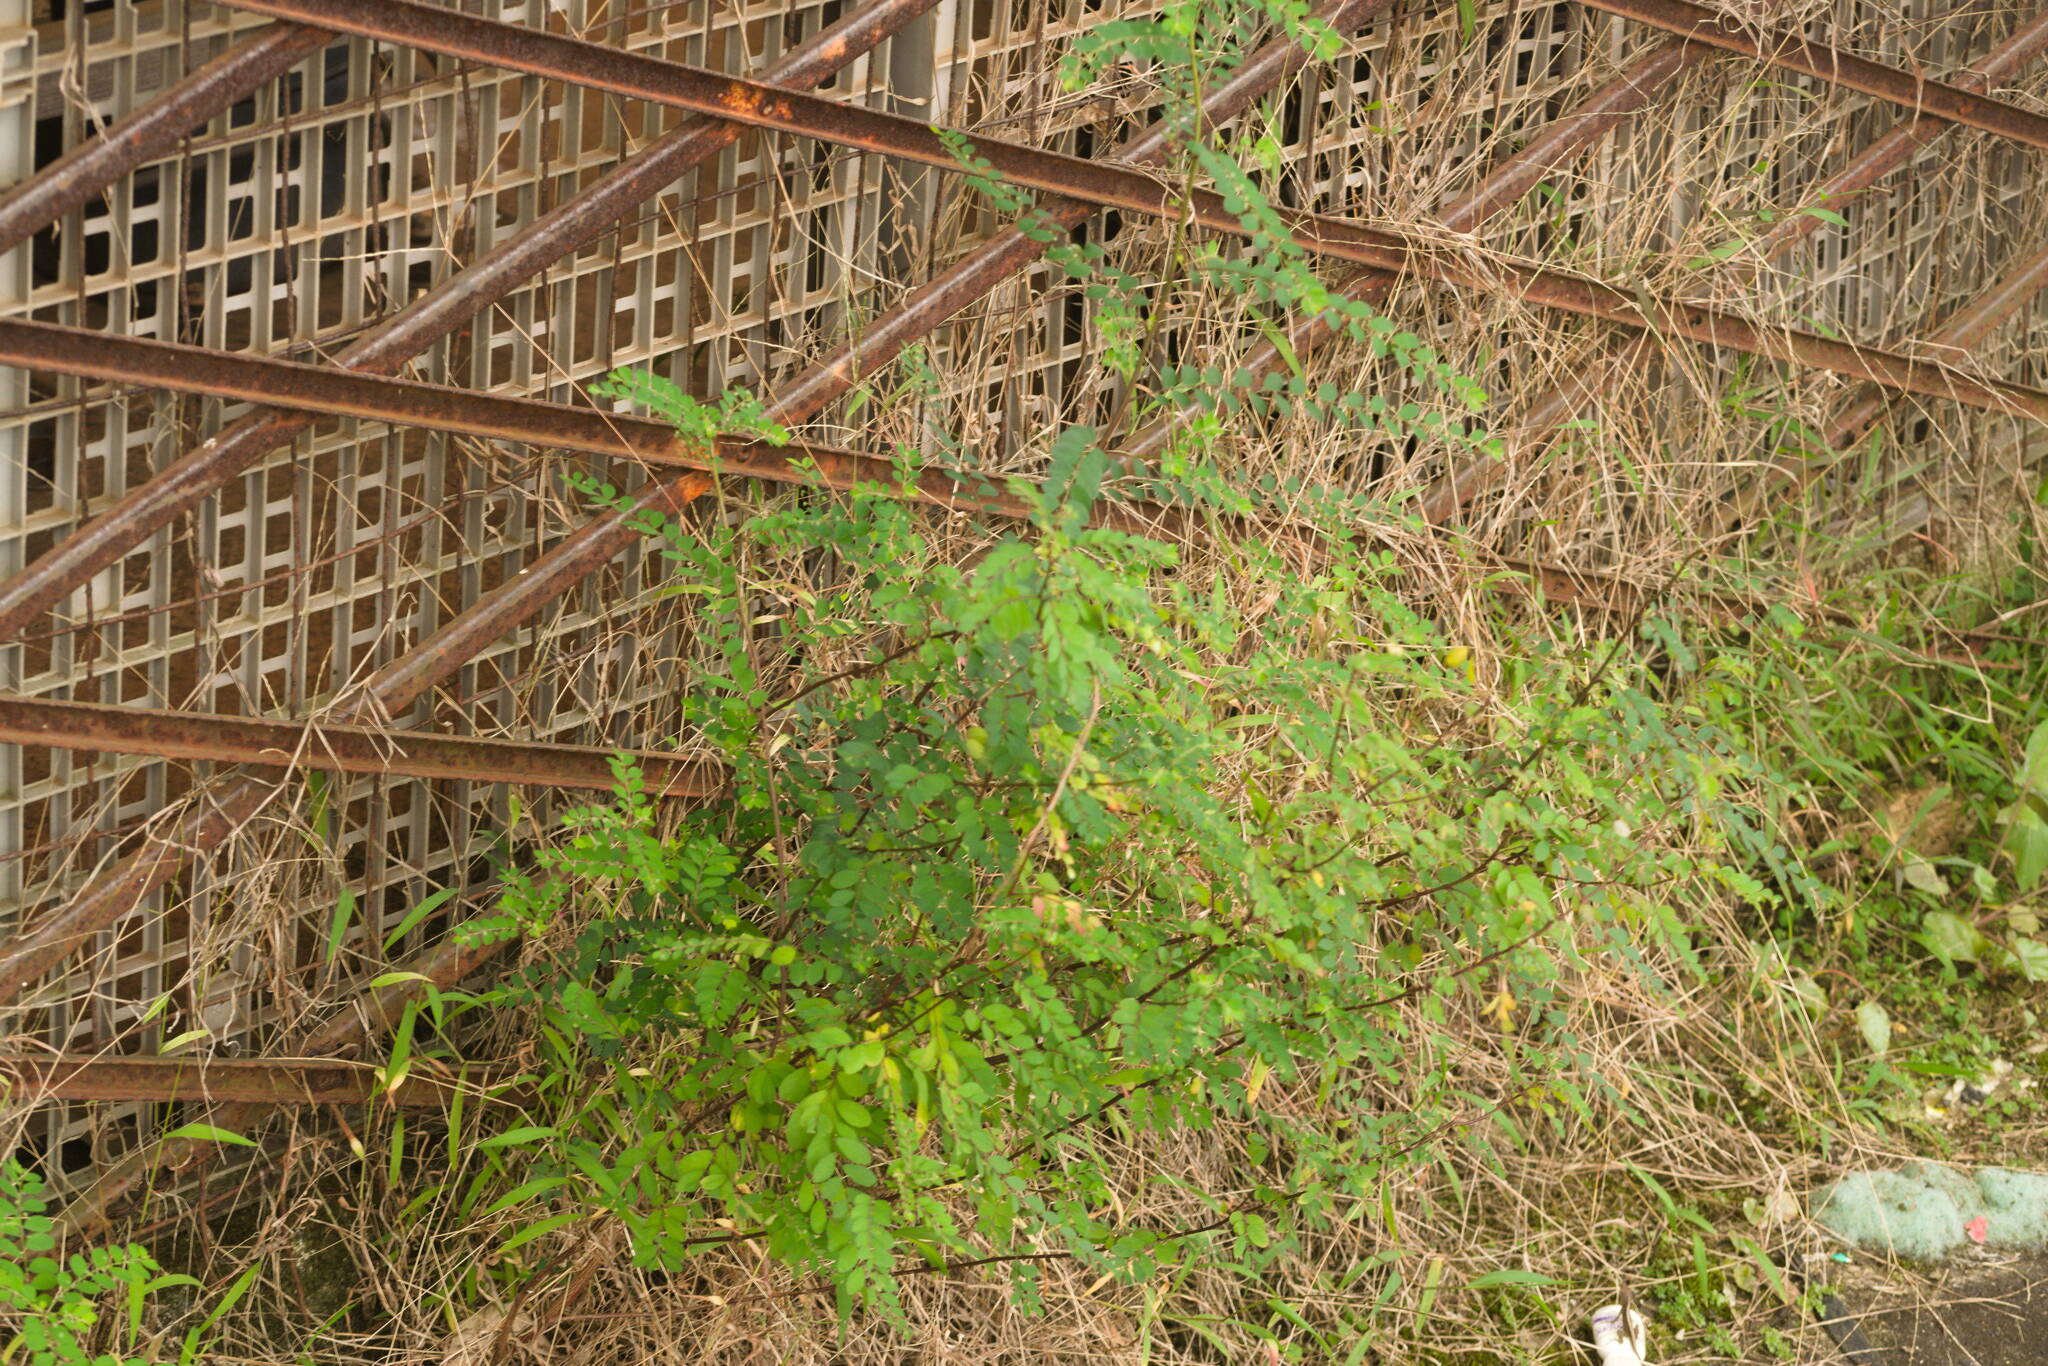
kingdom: Plantae
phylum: Tracheophyta
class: Magnoliopsida
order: Malpighiales
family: Phyllanthaceae
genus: Phyllanthus
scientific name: Phyllanthus tenellus
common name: Mascarene island leaf-flower
